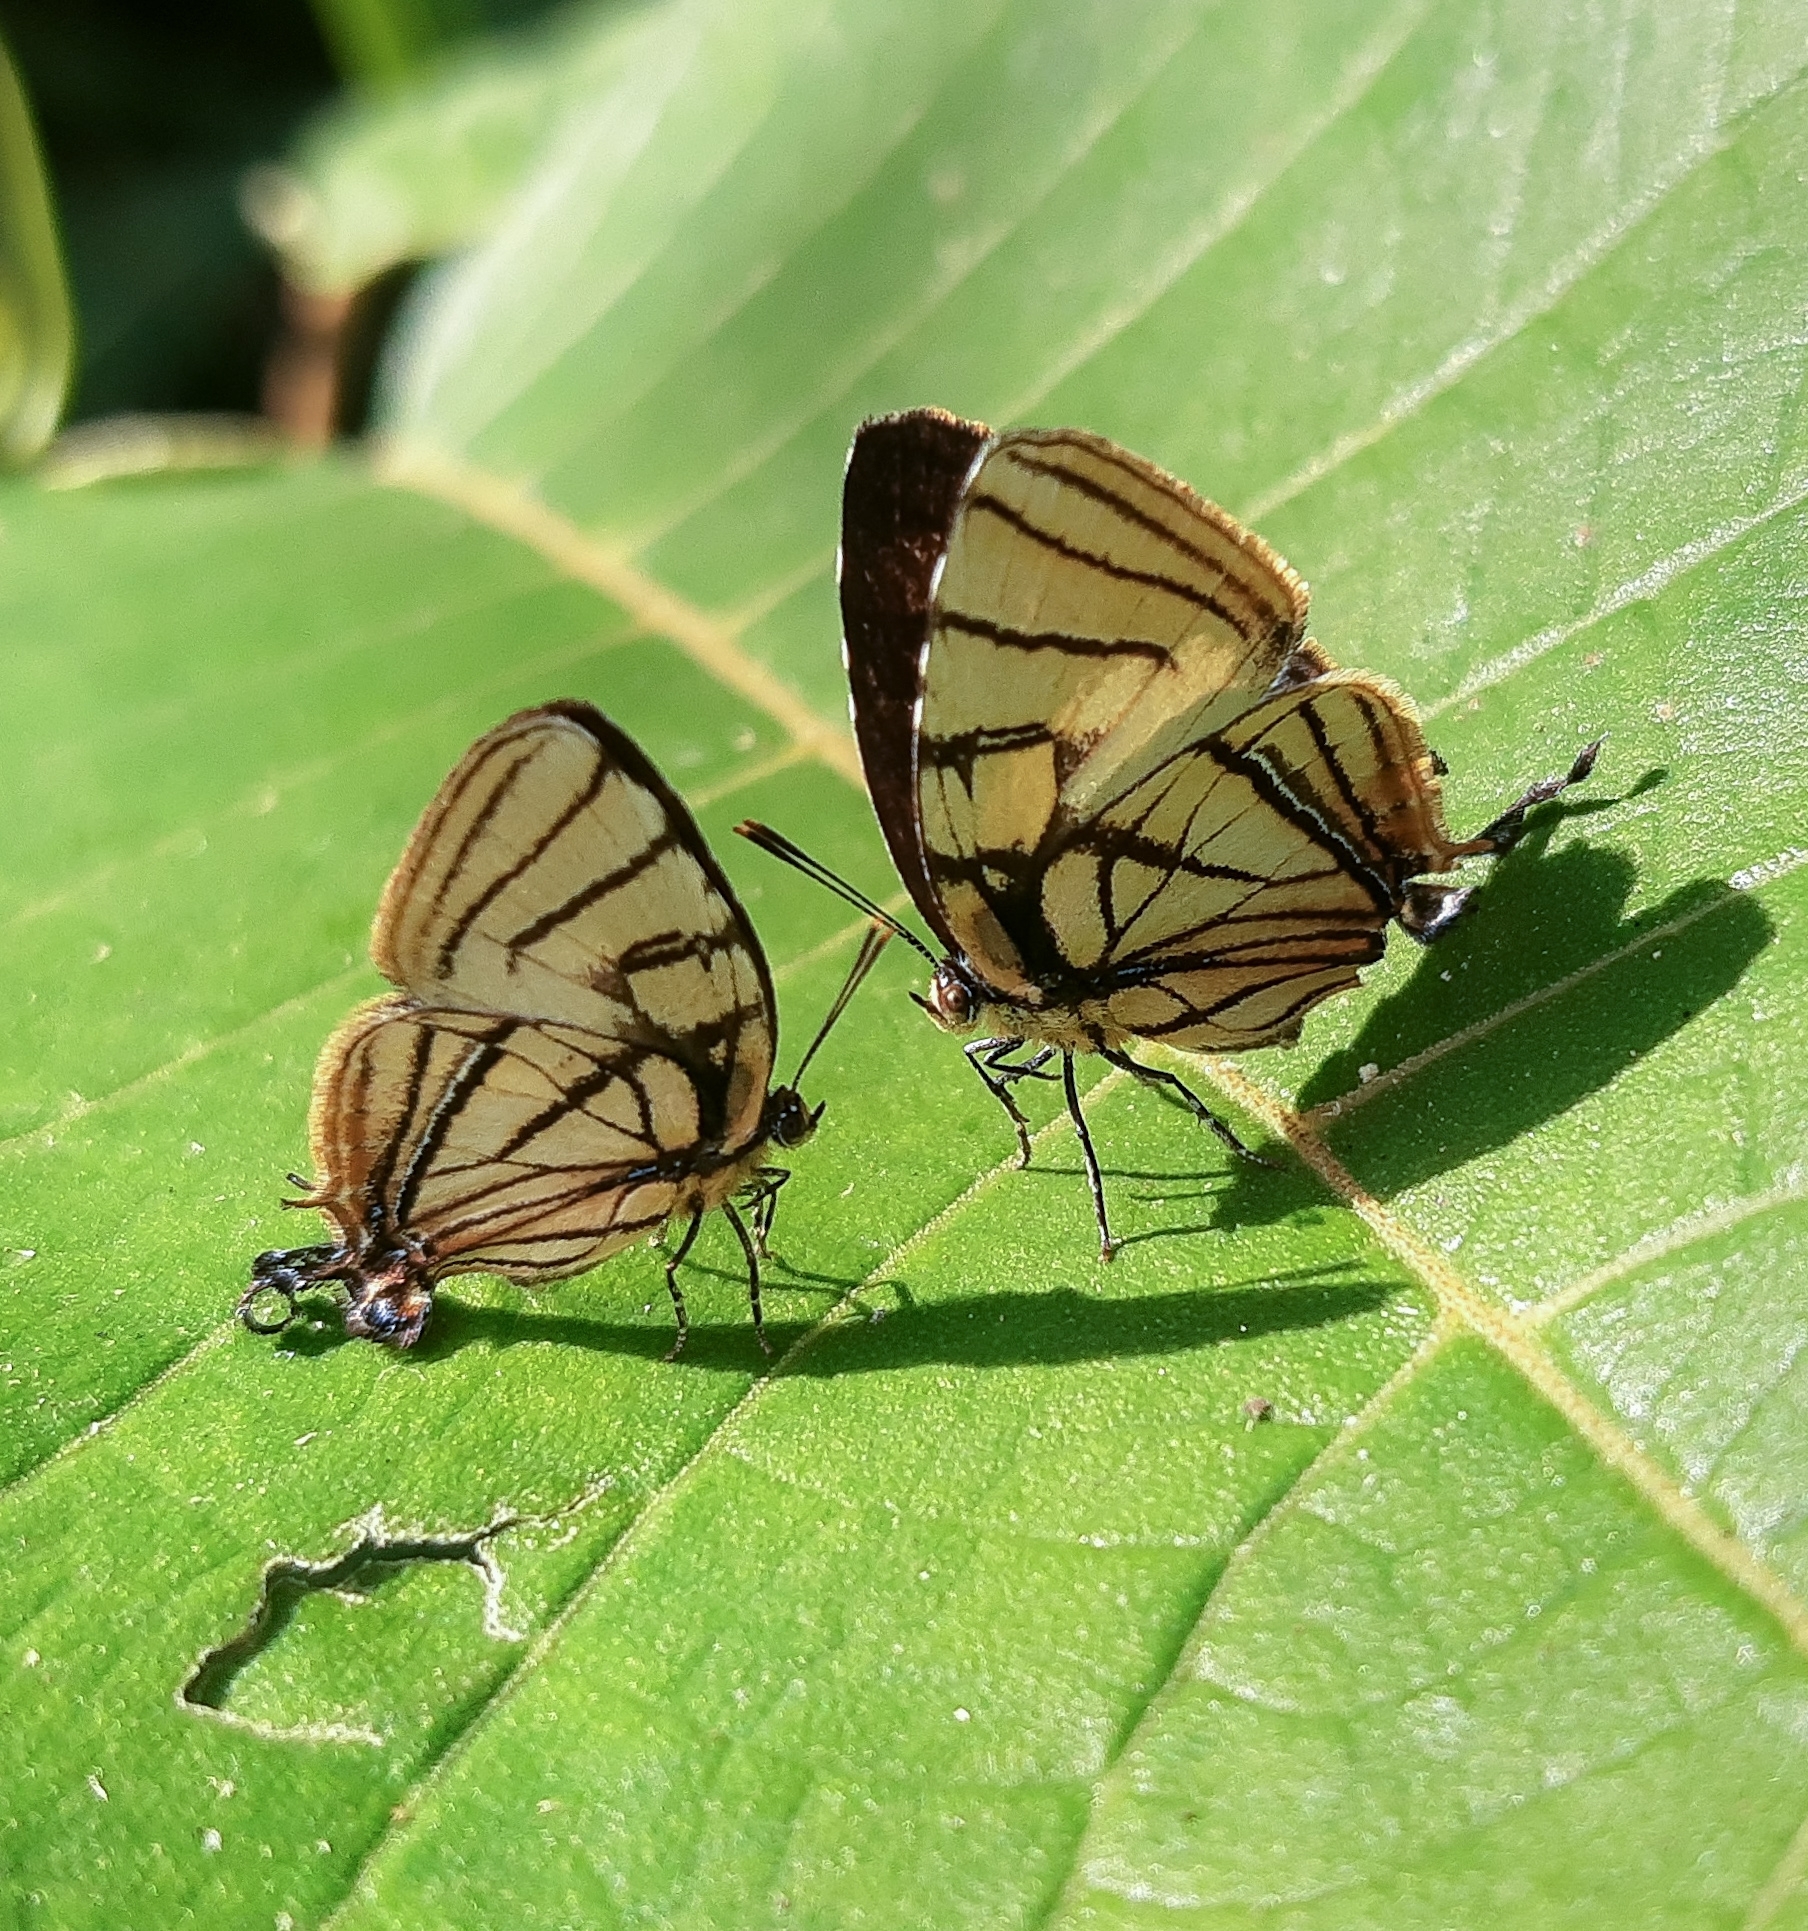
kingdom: Animalia
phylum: Arthropoda
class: Insecta
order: Lepidoptera
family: Lycaenidae
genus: Arawacus
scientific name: Arawacus melibaeus
